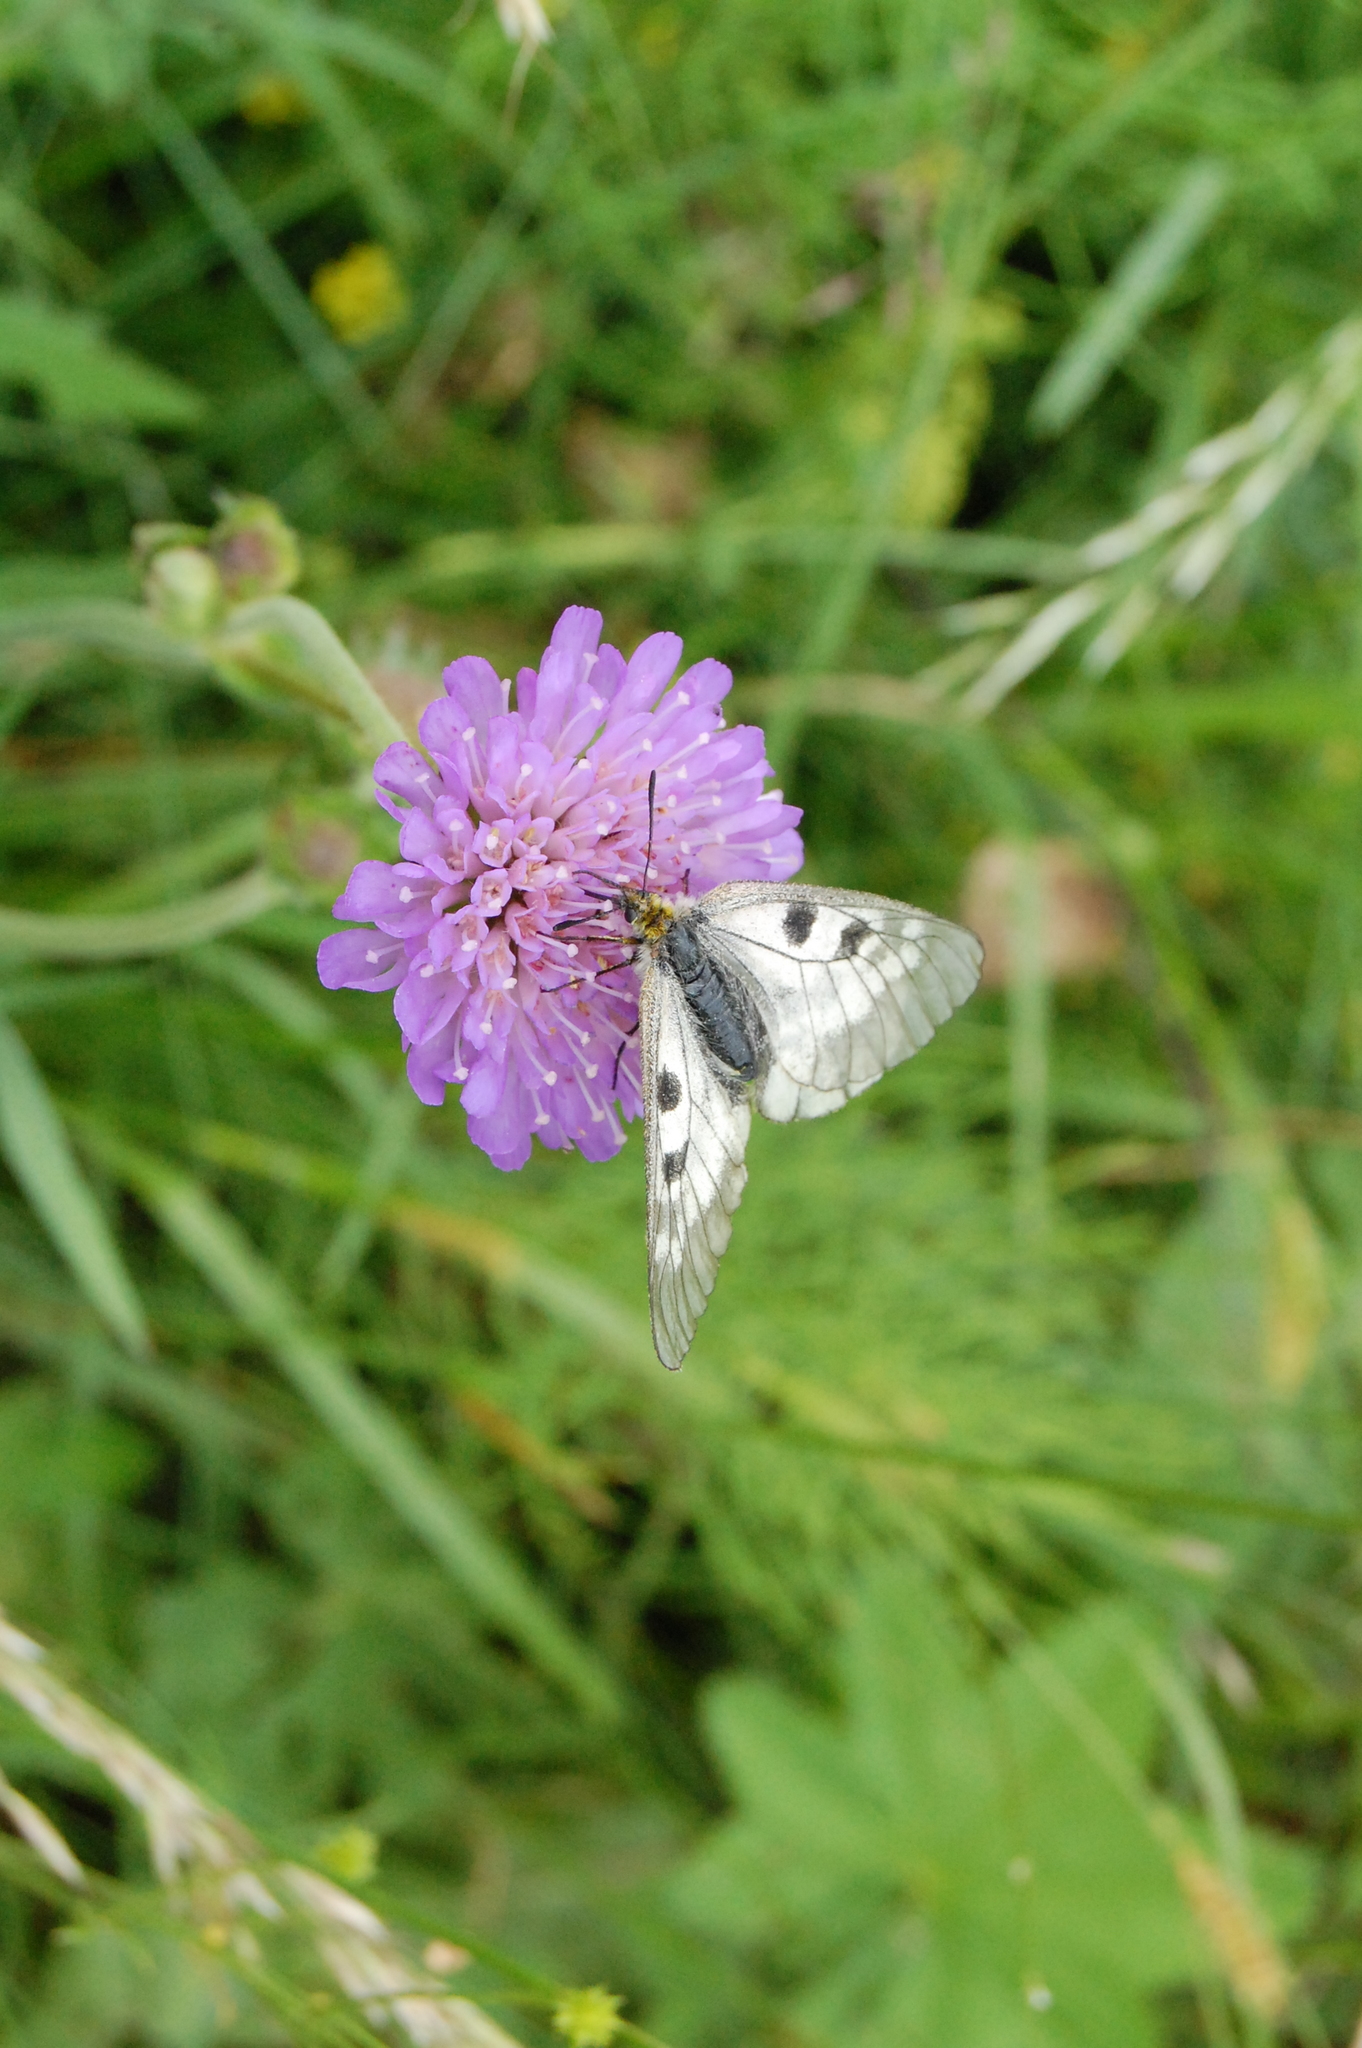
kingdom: Plantae
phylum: Tracheophyta
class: Magnoliopsida
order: Dipsacales
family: Caprifoliaceae
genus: Knautia
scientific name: Knautia arvensis
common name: Field scabiosa
